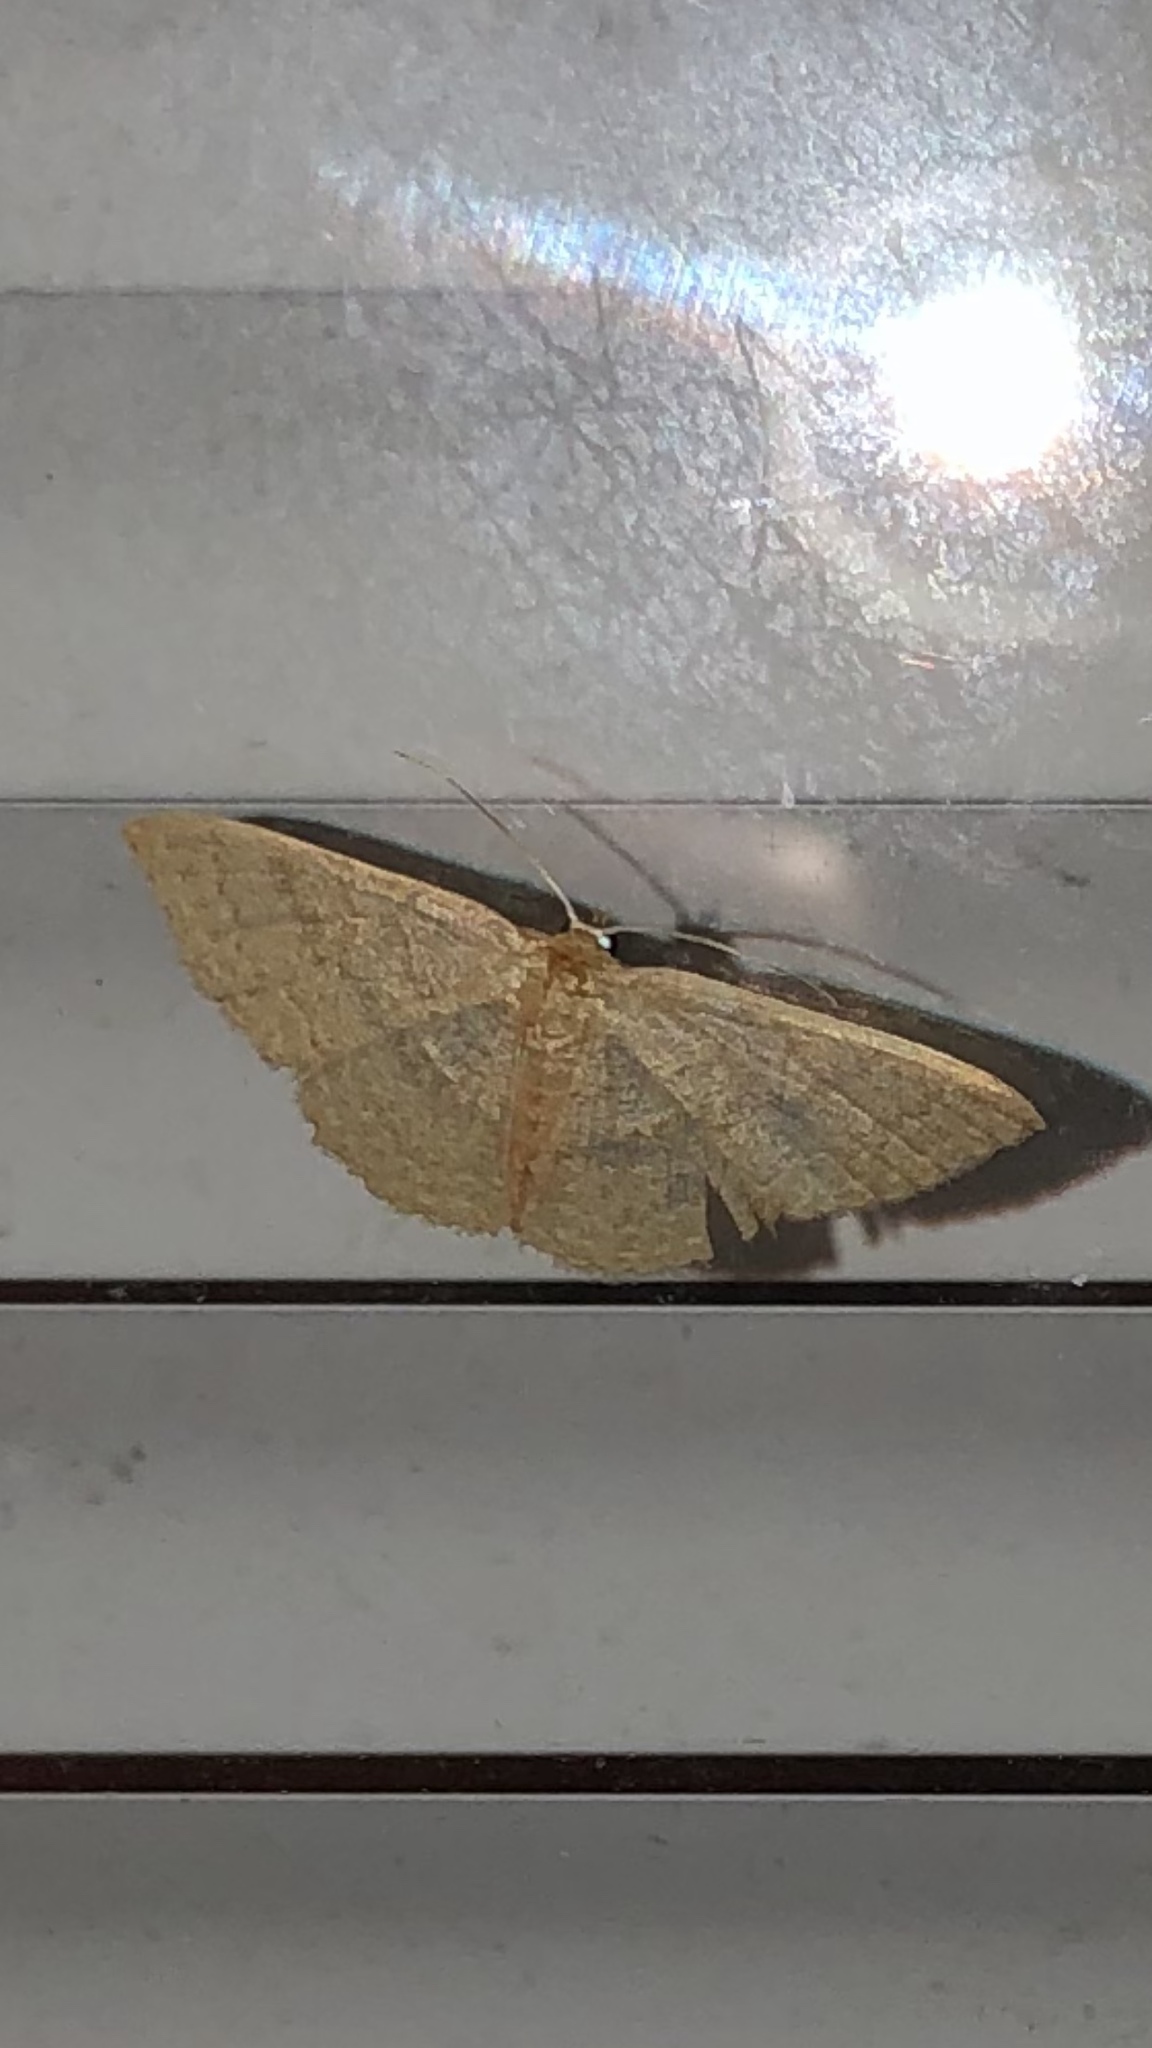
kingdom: Animalia
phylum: Arthropoda
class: Insecta
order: Lepidoptera
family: Geometridae
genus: Pleuroprucha
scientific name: Pleuroprucha insulsaria
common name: Common tan wave
